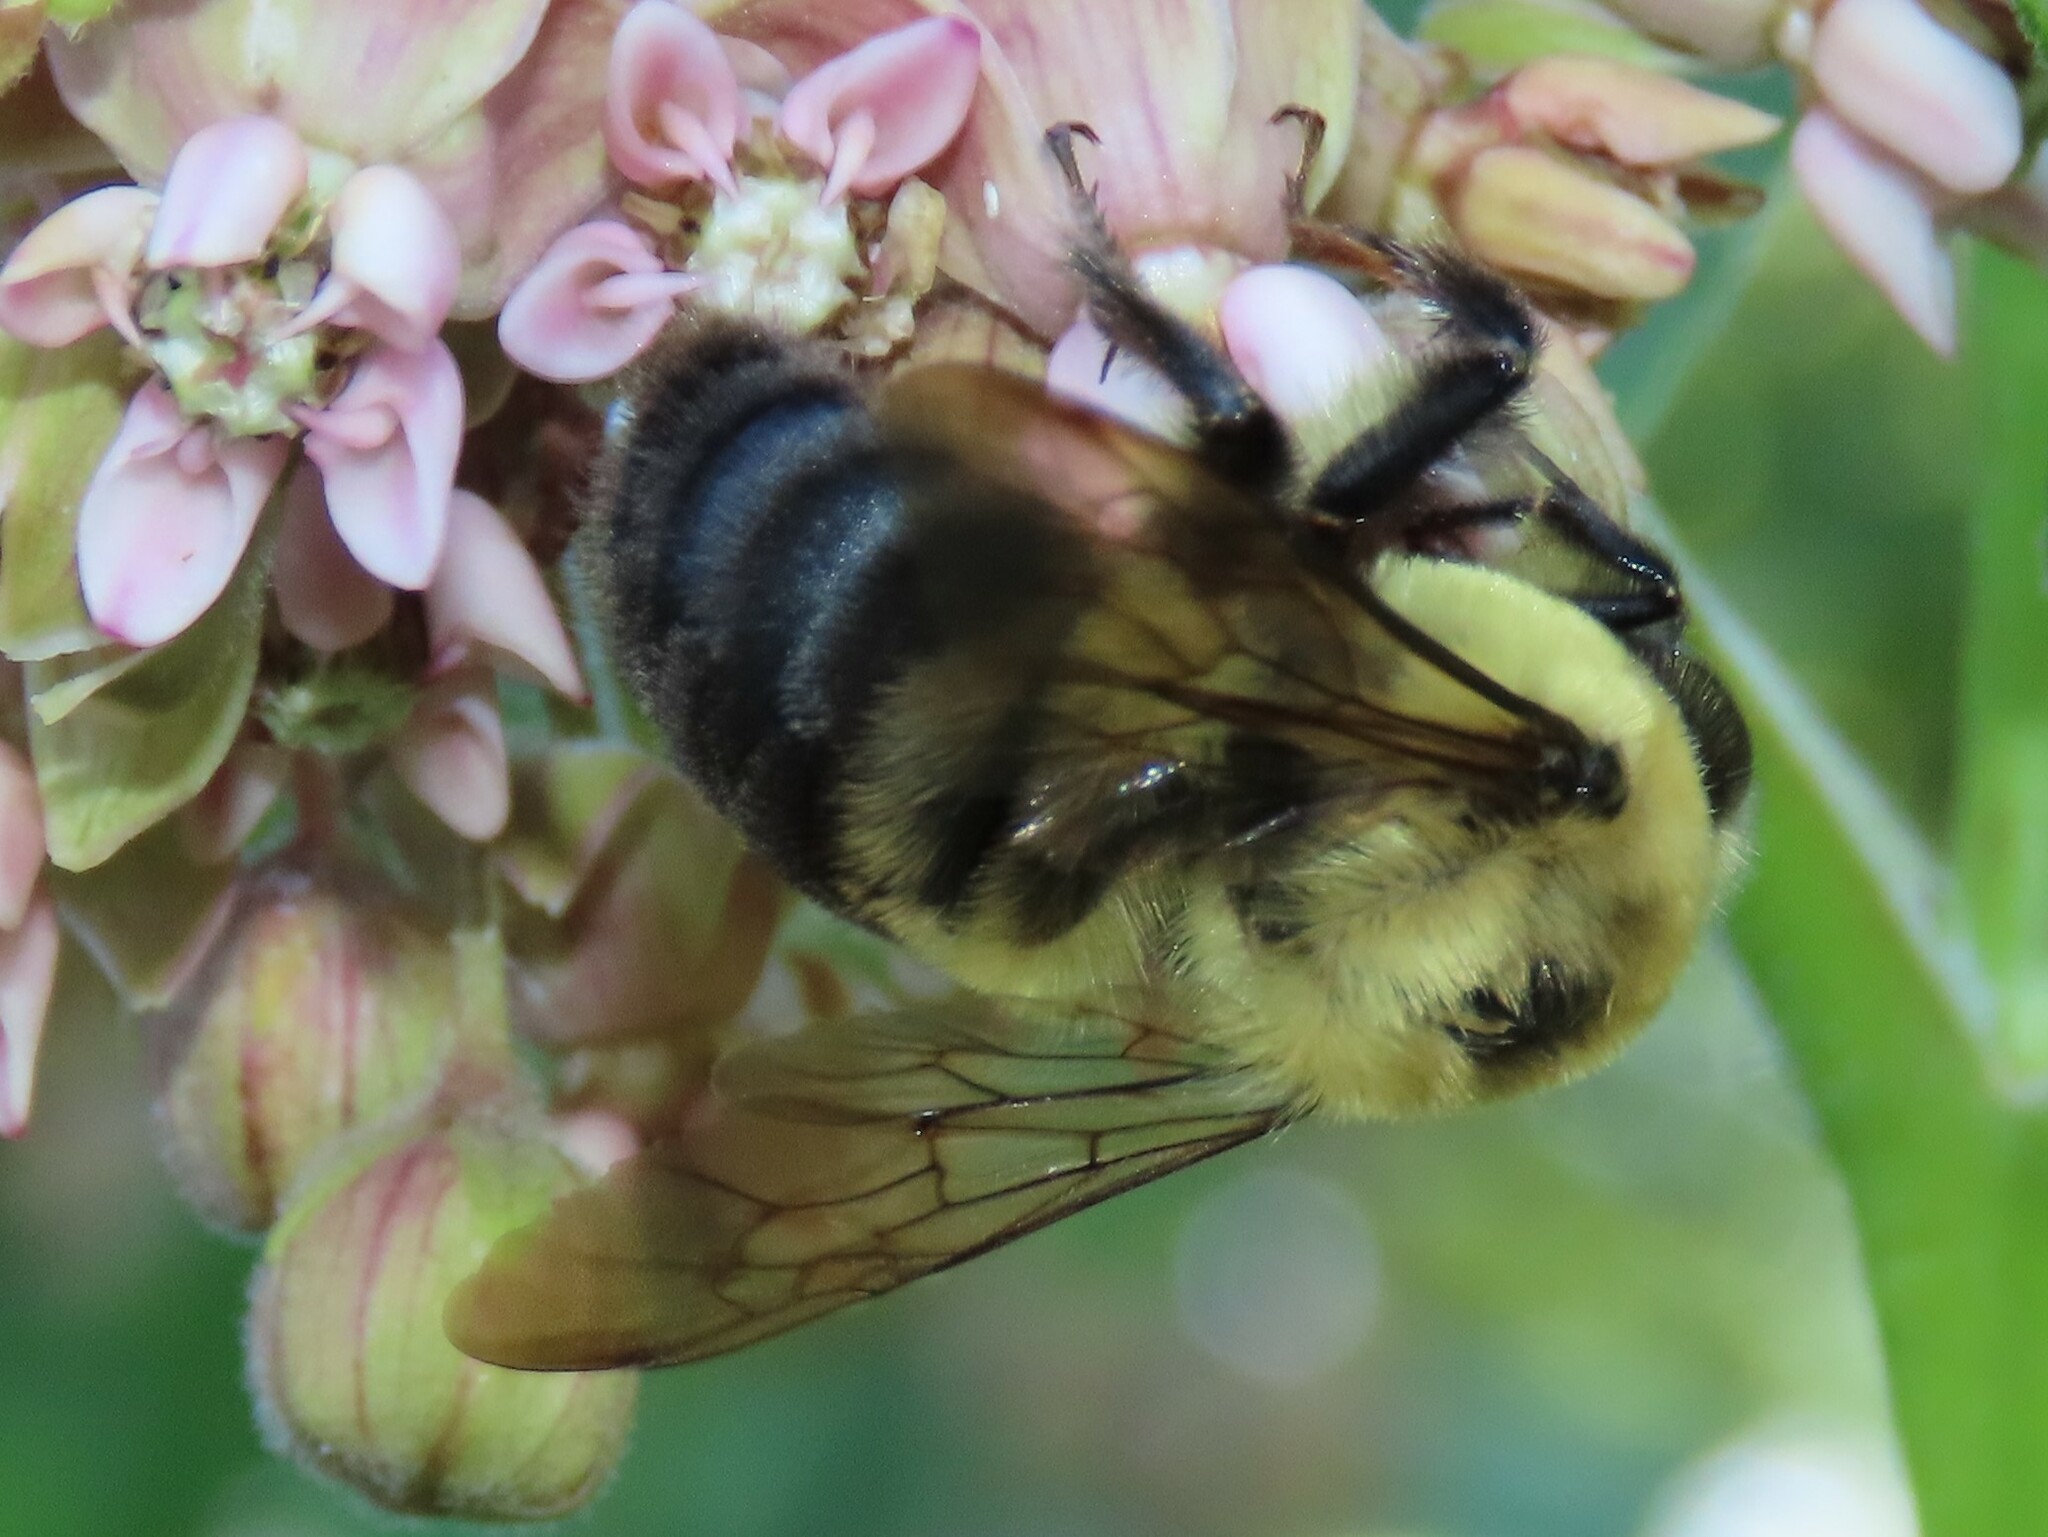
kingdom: Animalia
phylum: Arthropoda
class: Insecta
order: Hymenoptera
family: Apidae
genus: Bombus
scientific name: Bombus griseocollis
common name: Brown-belted bumble bee
